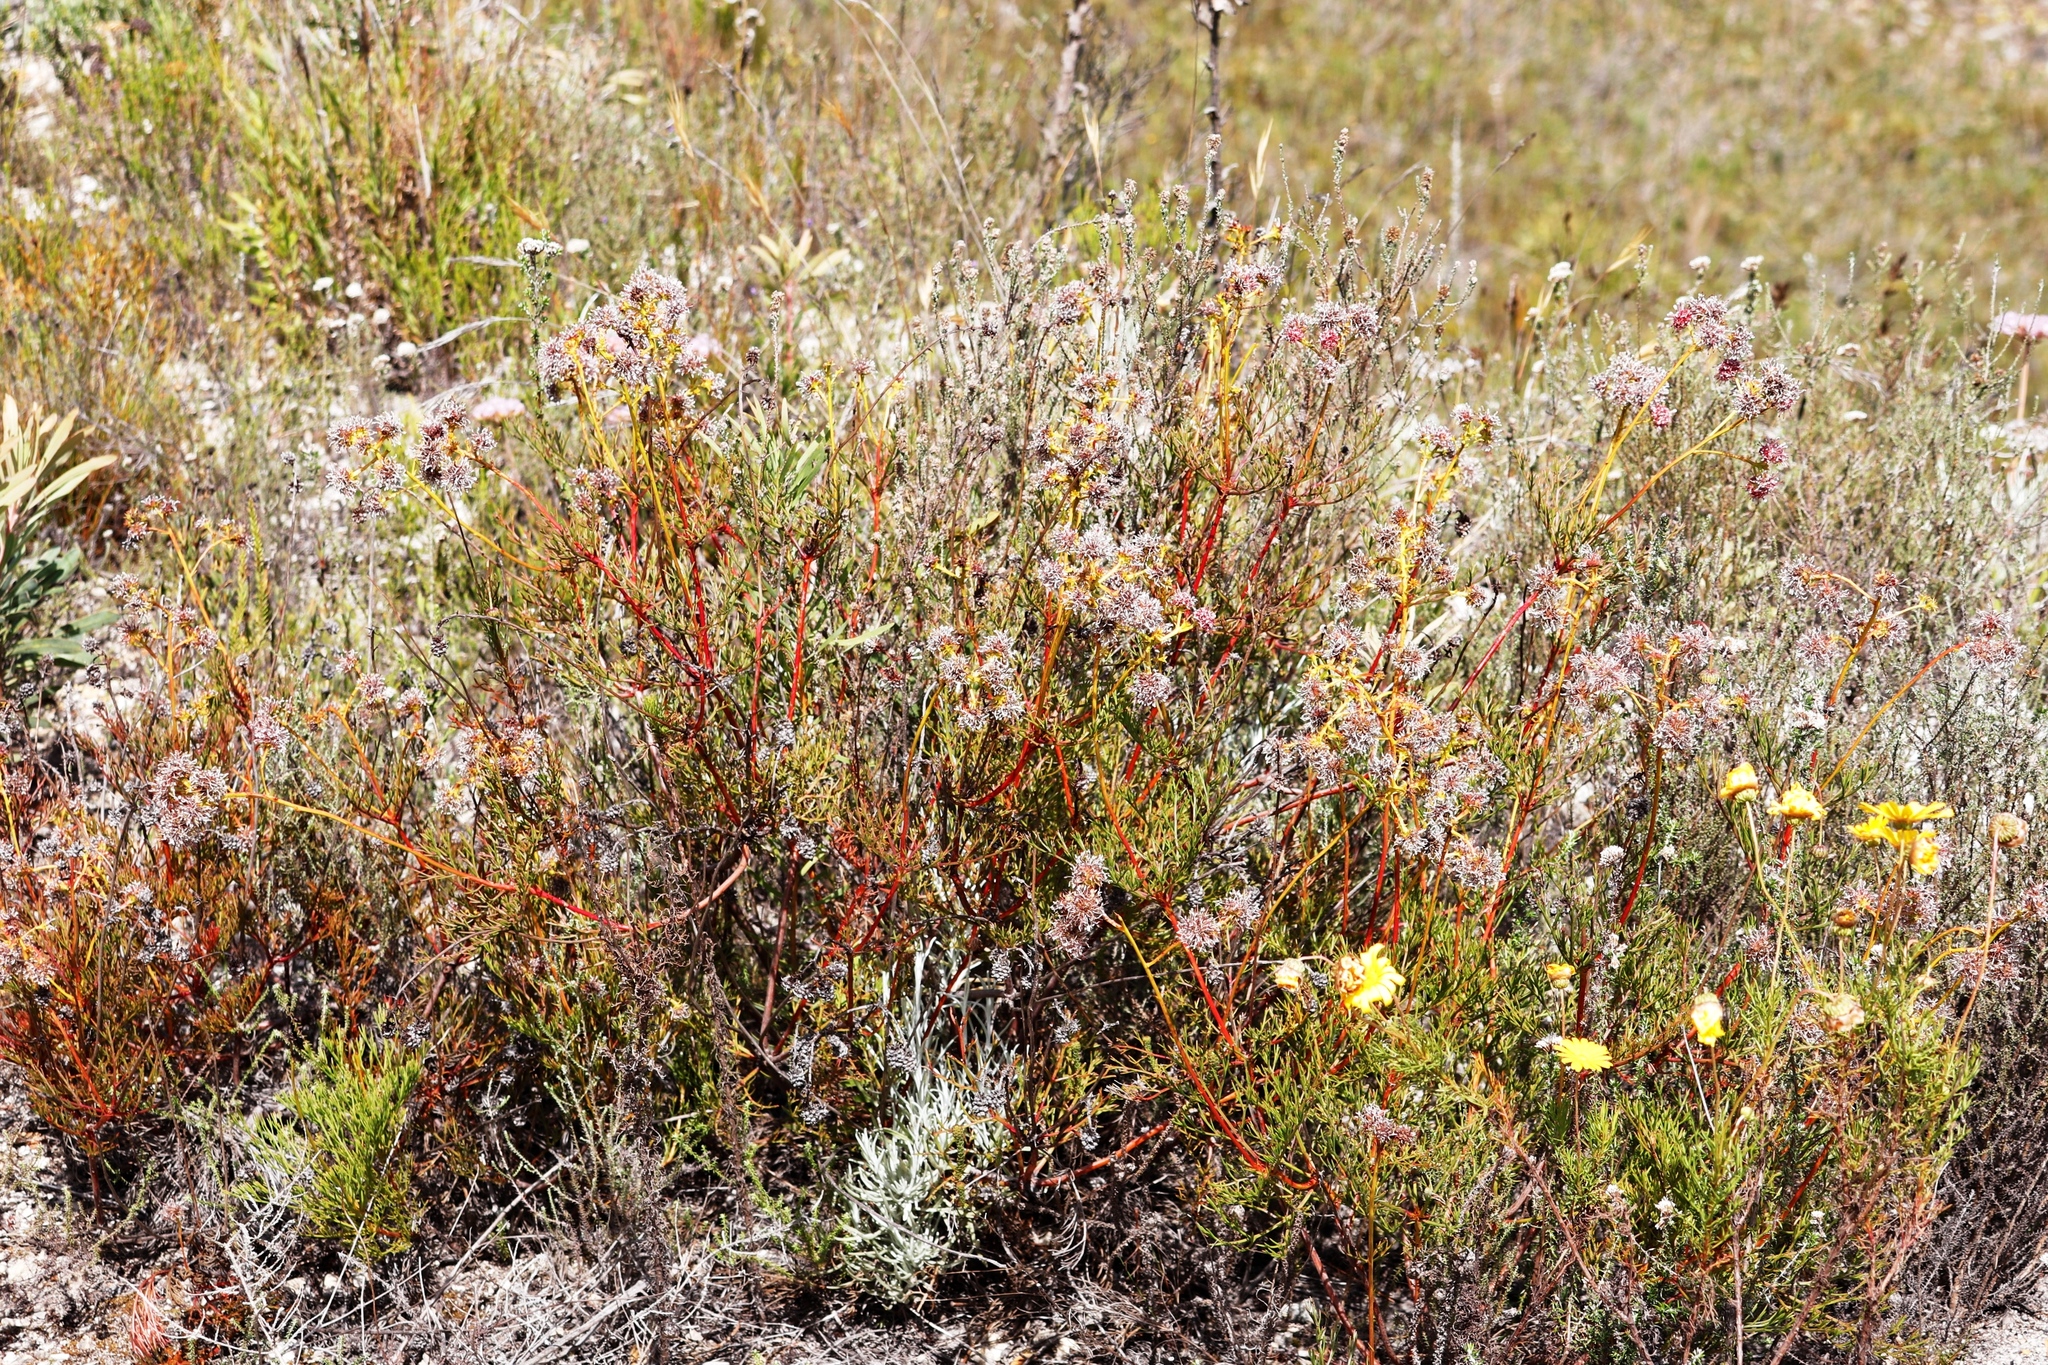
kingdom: Plantae
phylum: Tracheophyta
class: Magnoliopsida
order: Proteales
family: Proteaceae
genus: Serruria
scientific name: Serruria elongata
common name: Long-stalk spiderhead
